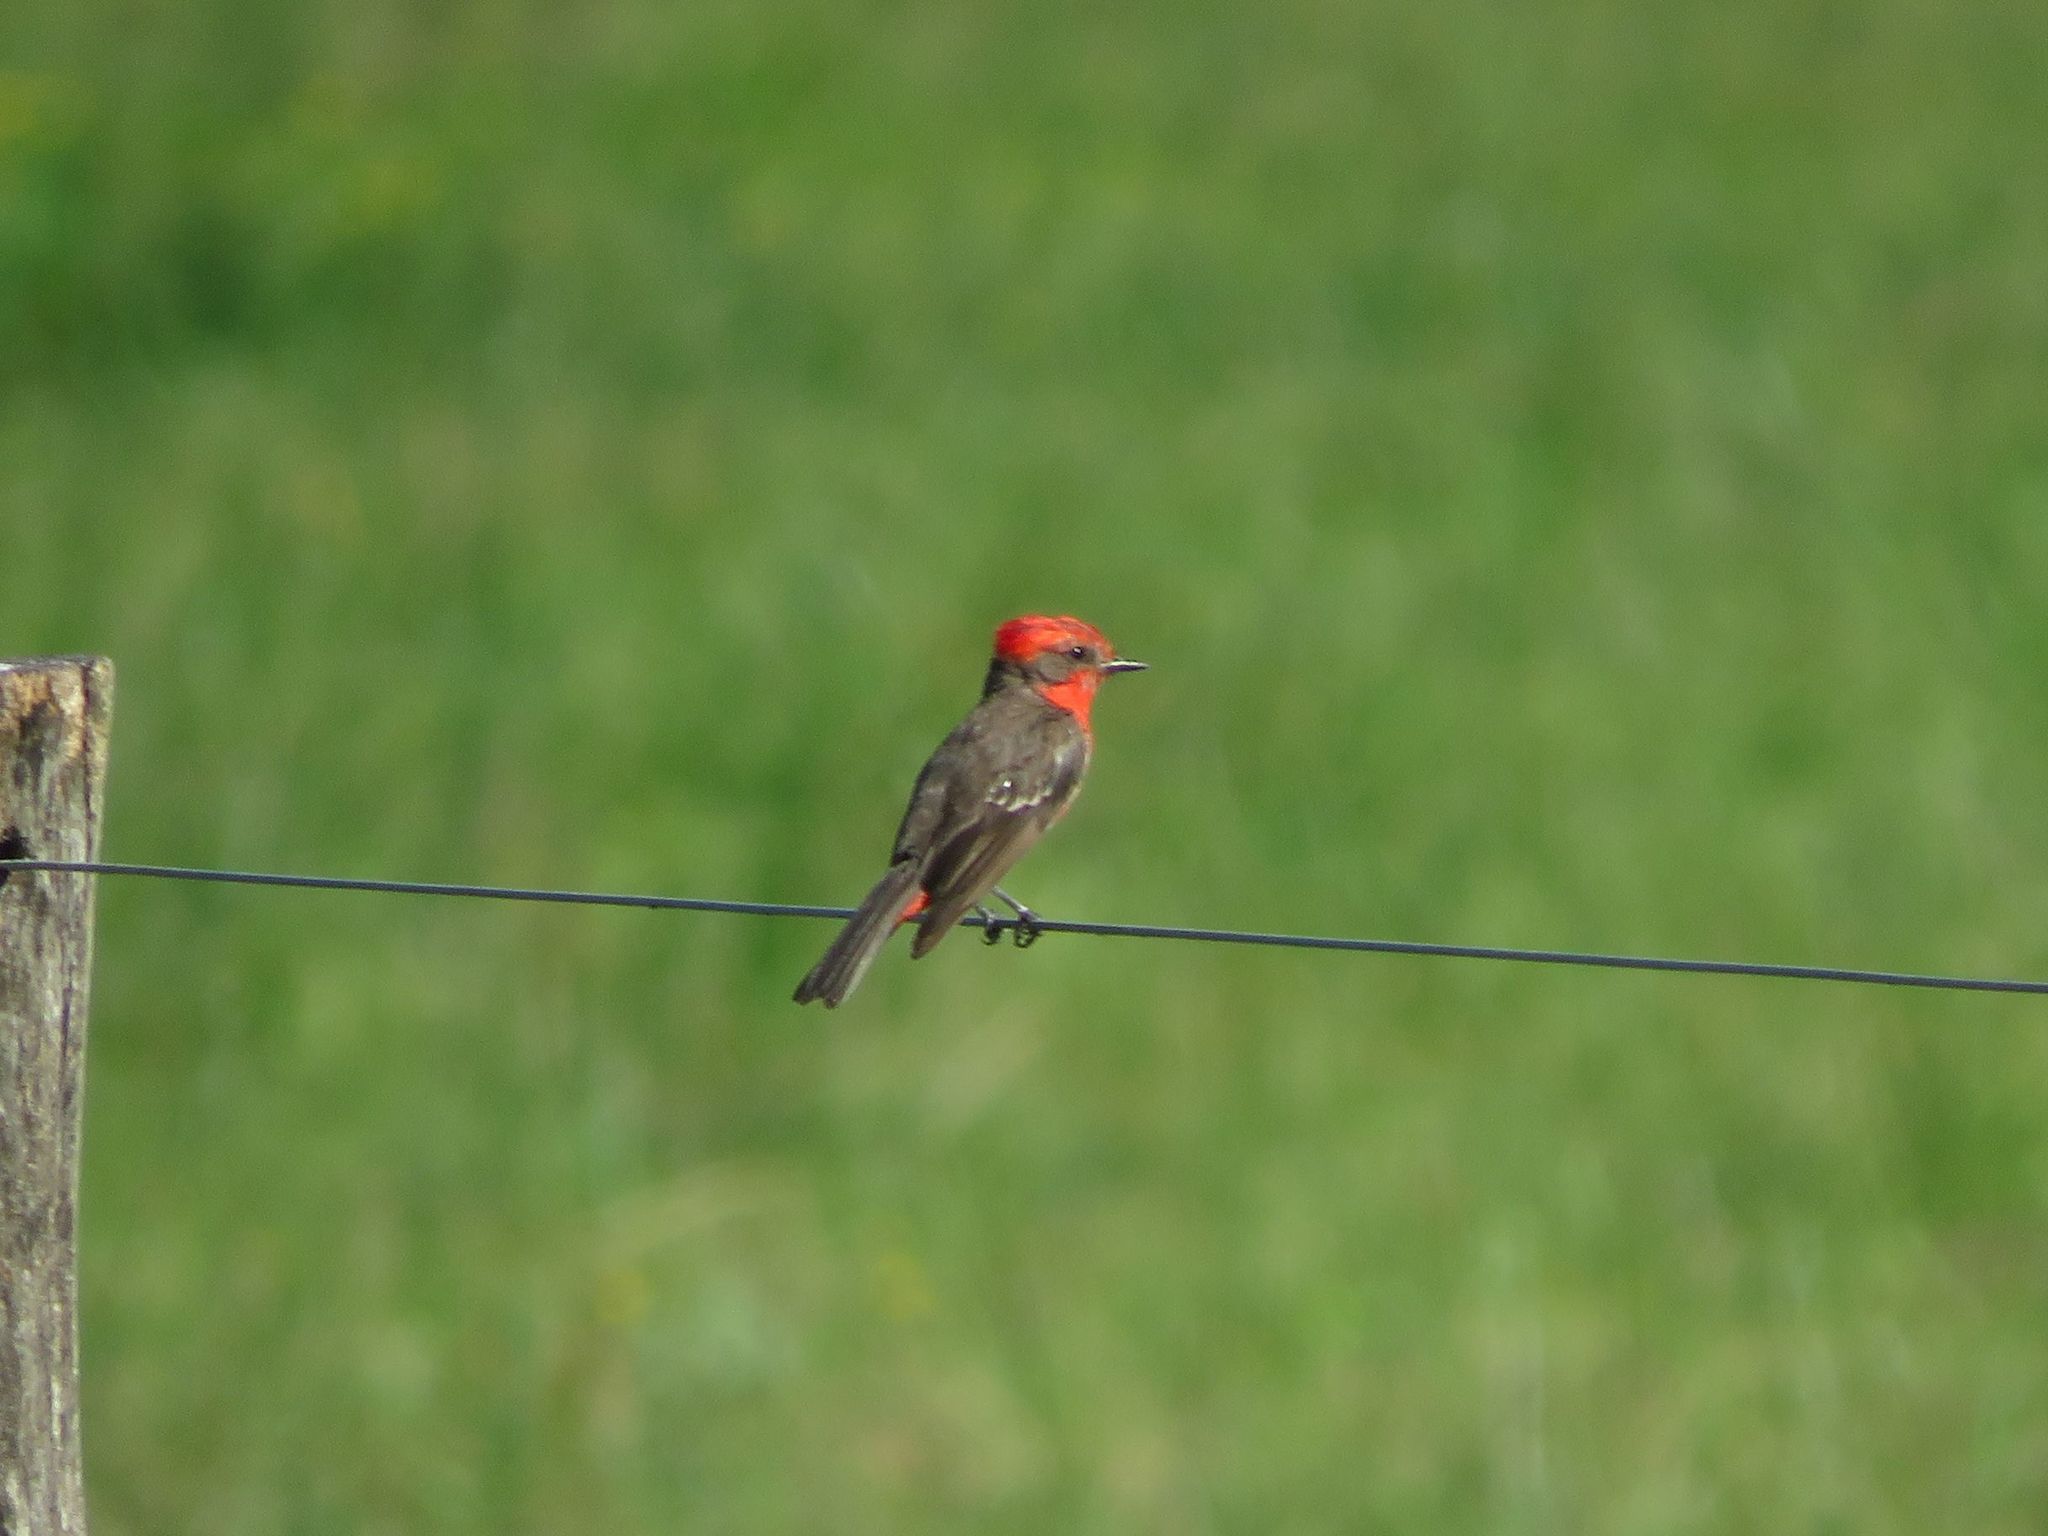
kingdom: Animalia
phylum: Chordata
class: Aves
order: Passeriformes
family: Tyrannidae
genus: Pyrocephalus
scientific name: Pyrocephalus rubinus
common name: Vermilion flycatcher
